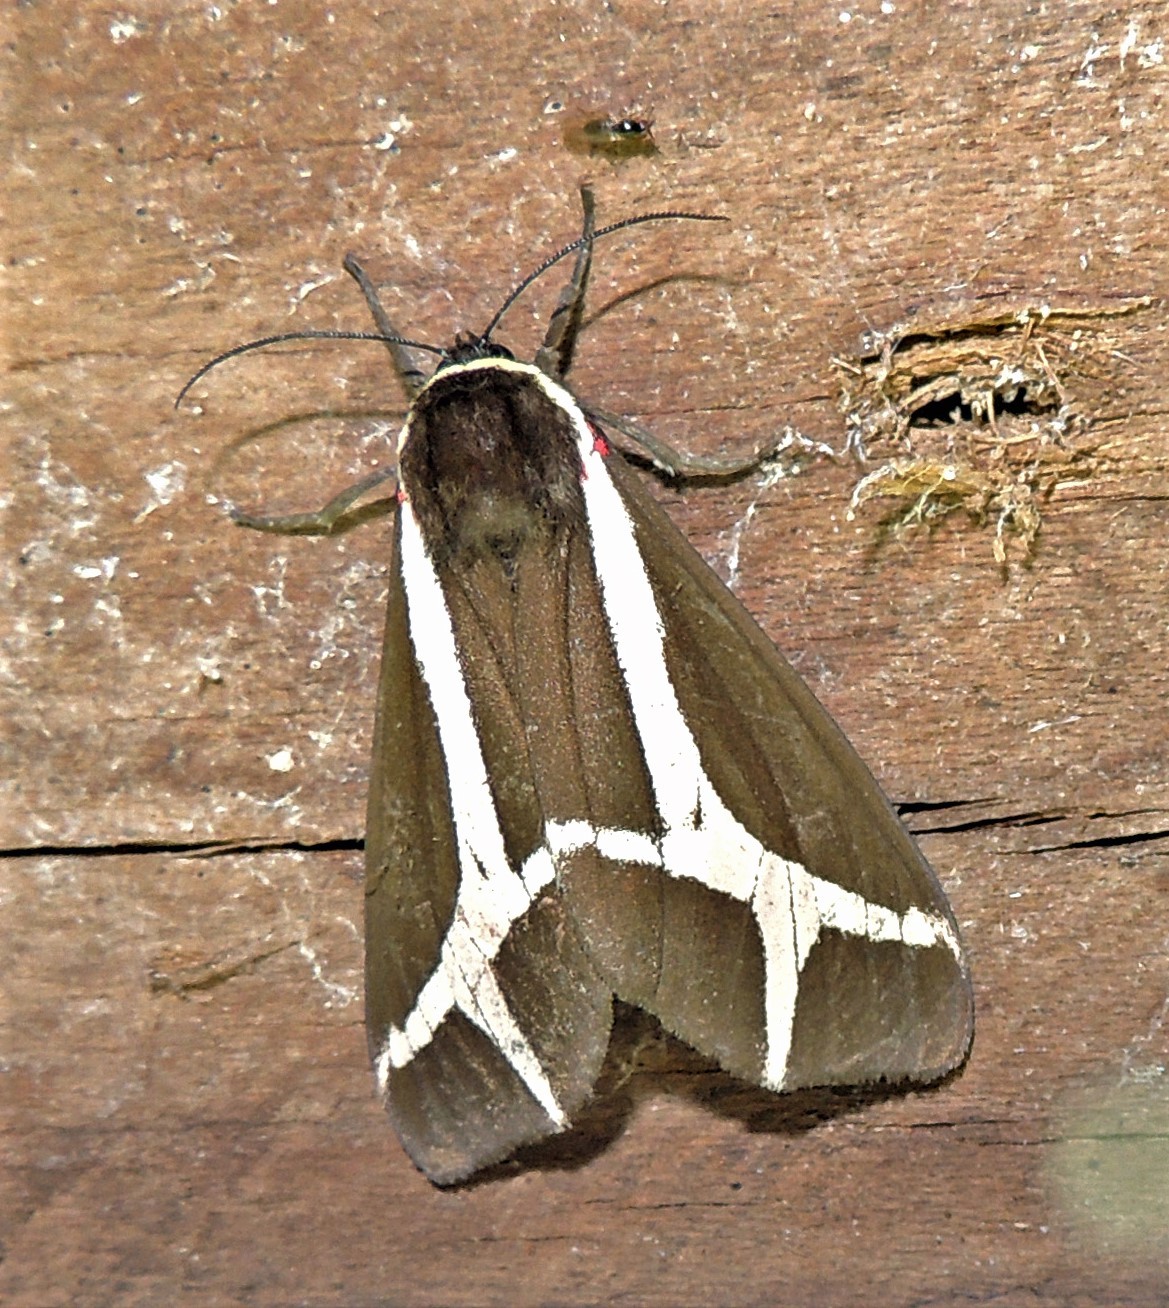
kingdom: Animalia
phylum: Arthropoda
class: Insecta
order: Lepidoptera
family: Erebidae
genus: Dysschema
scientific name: Dysschema sacrifica
